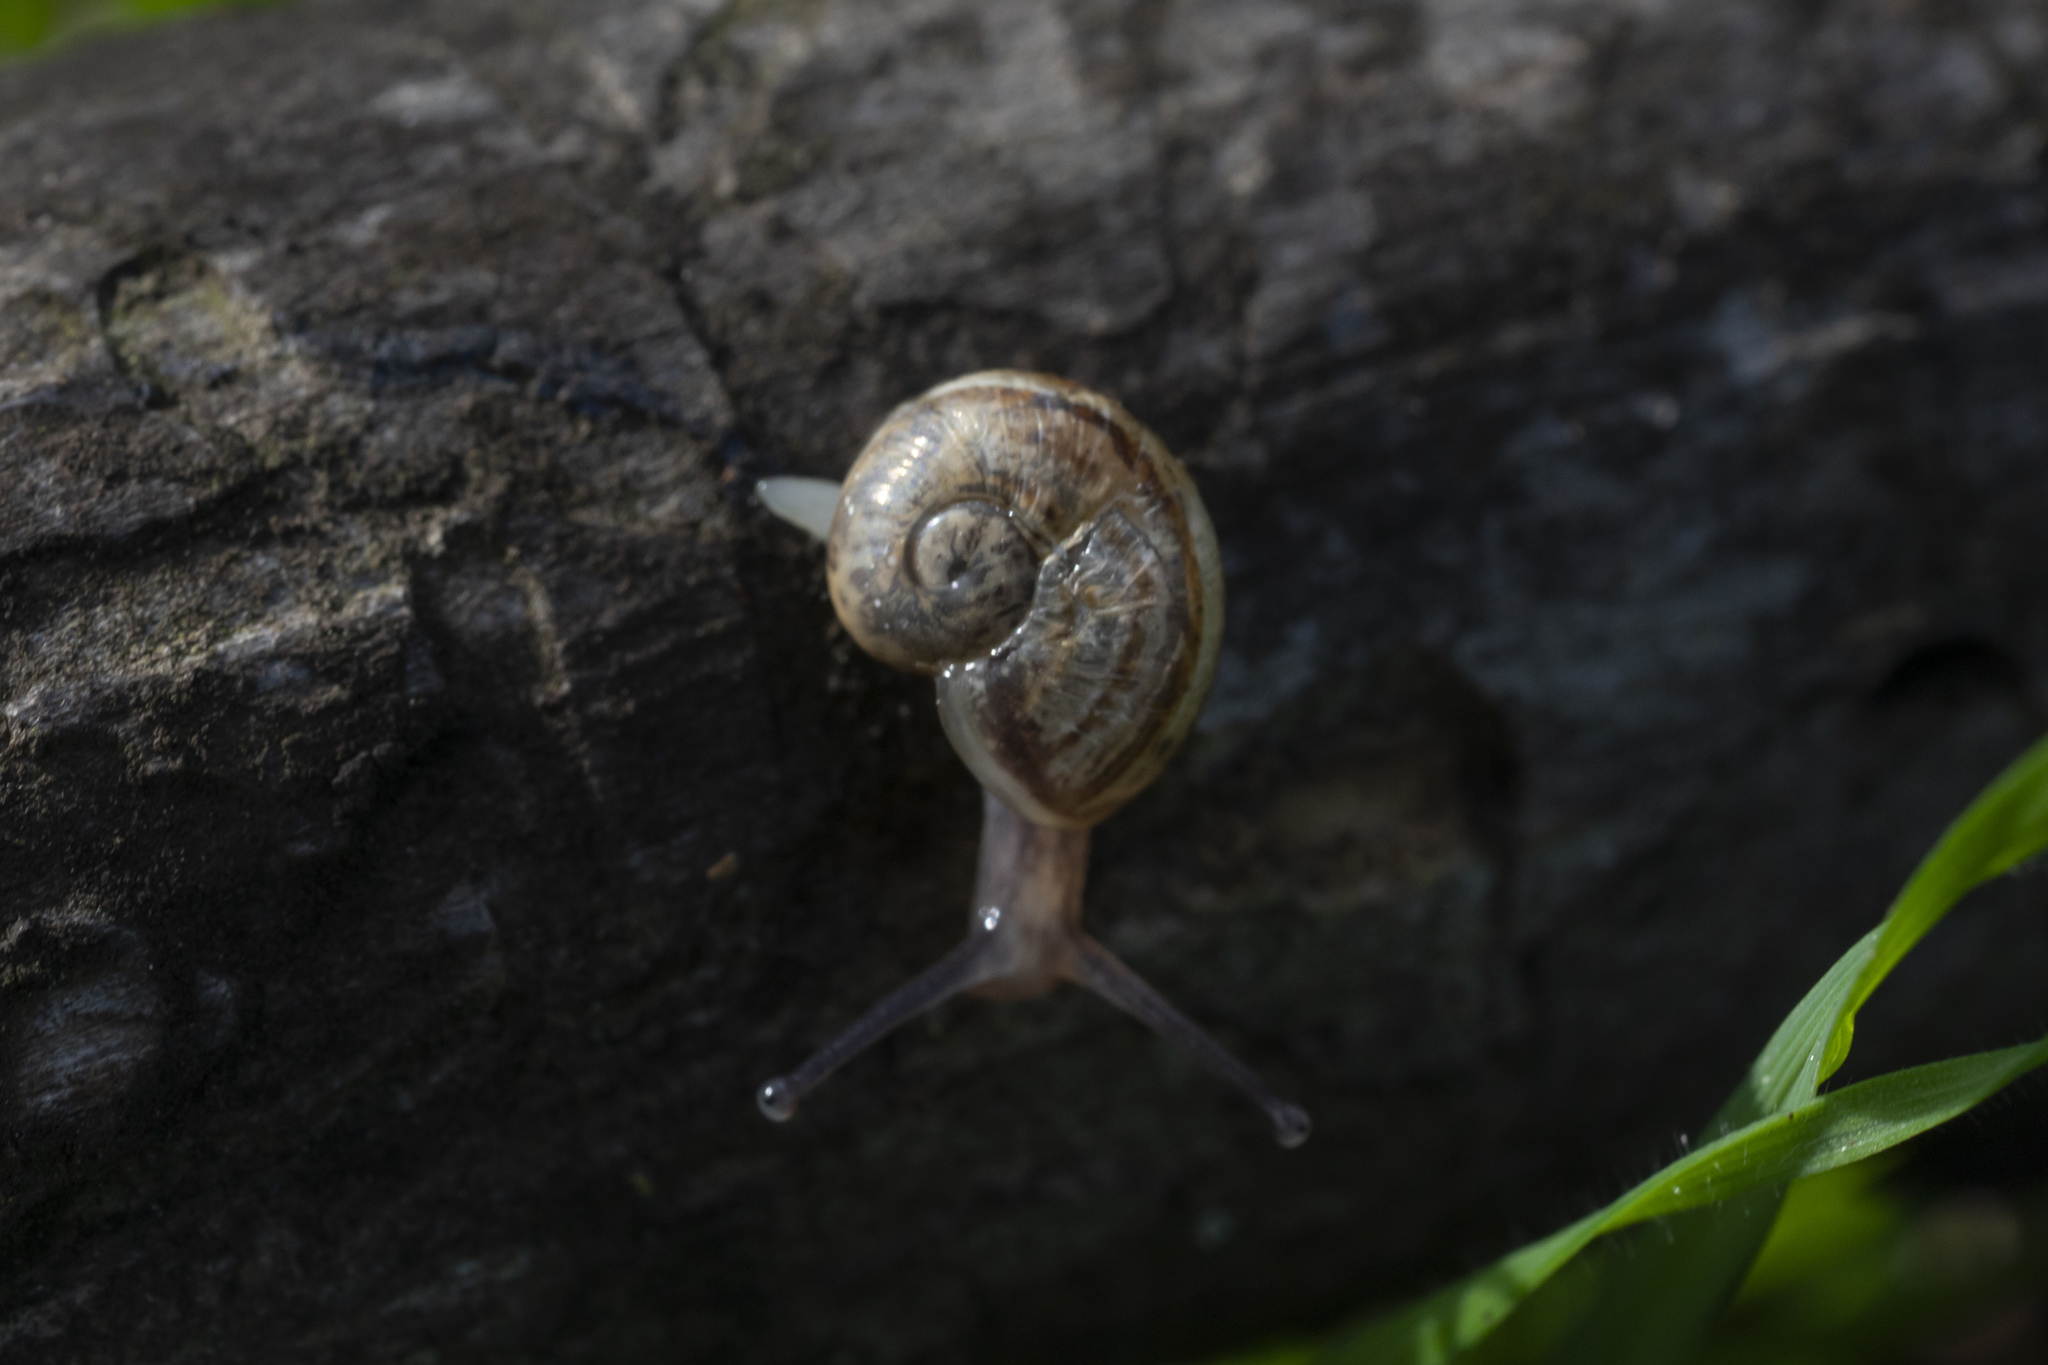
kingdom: Animalia
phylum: Mollusca
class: Gastropoda
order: Stylommatophora
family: Helicidae
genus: Helix
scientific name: Helix
